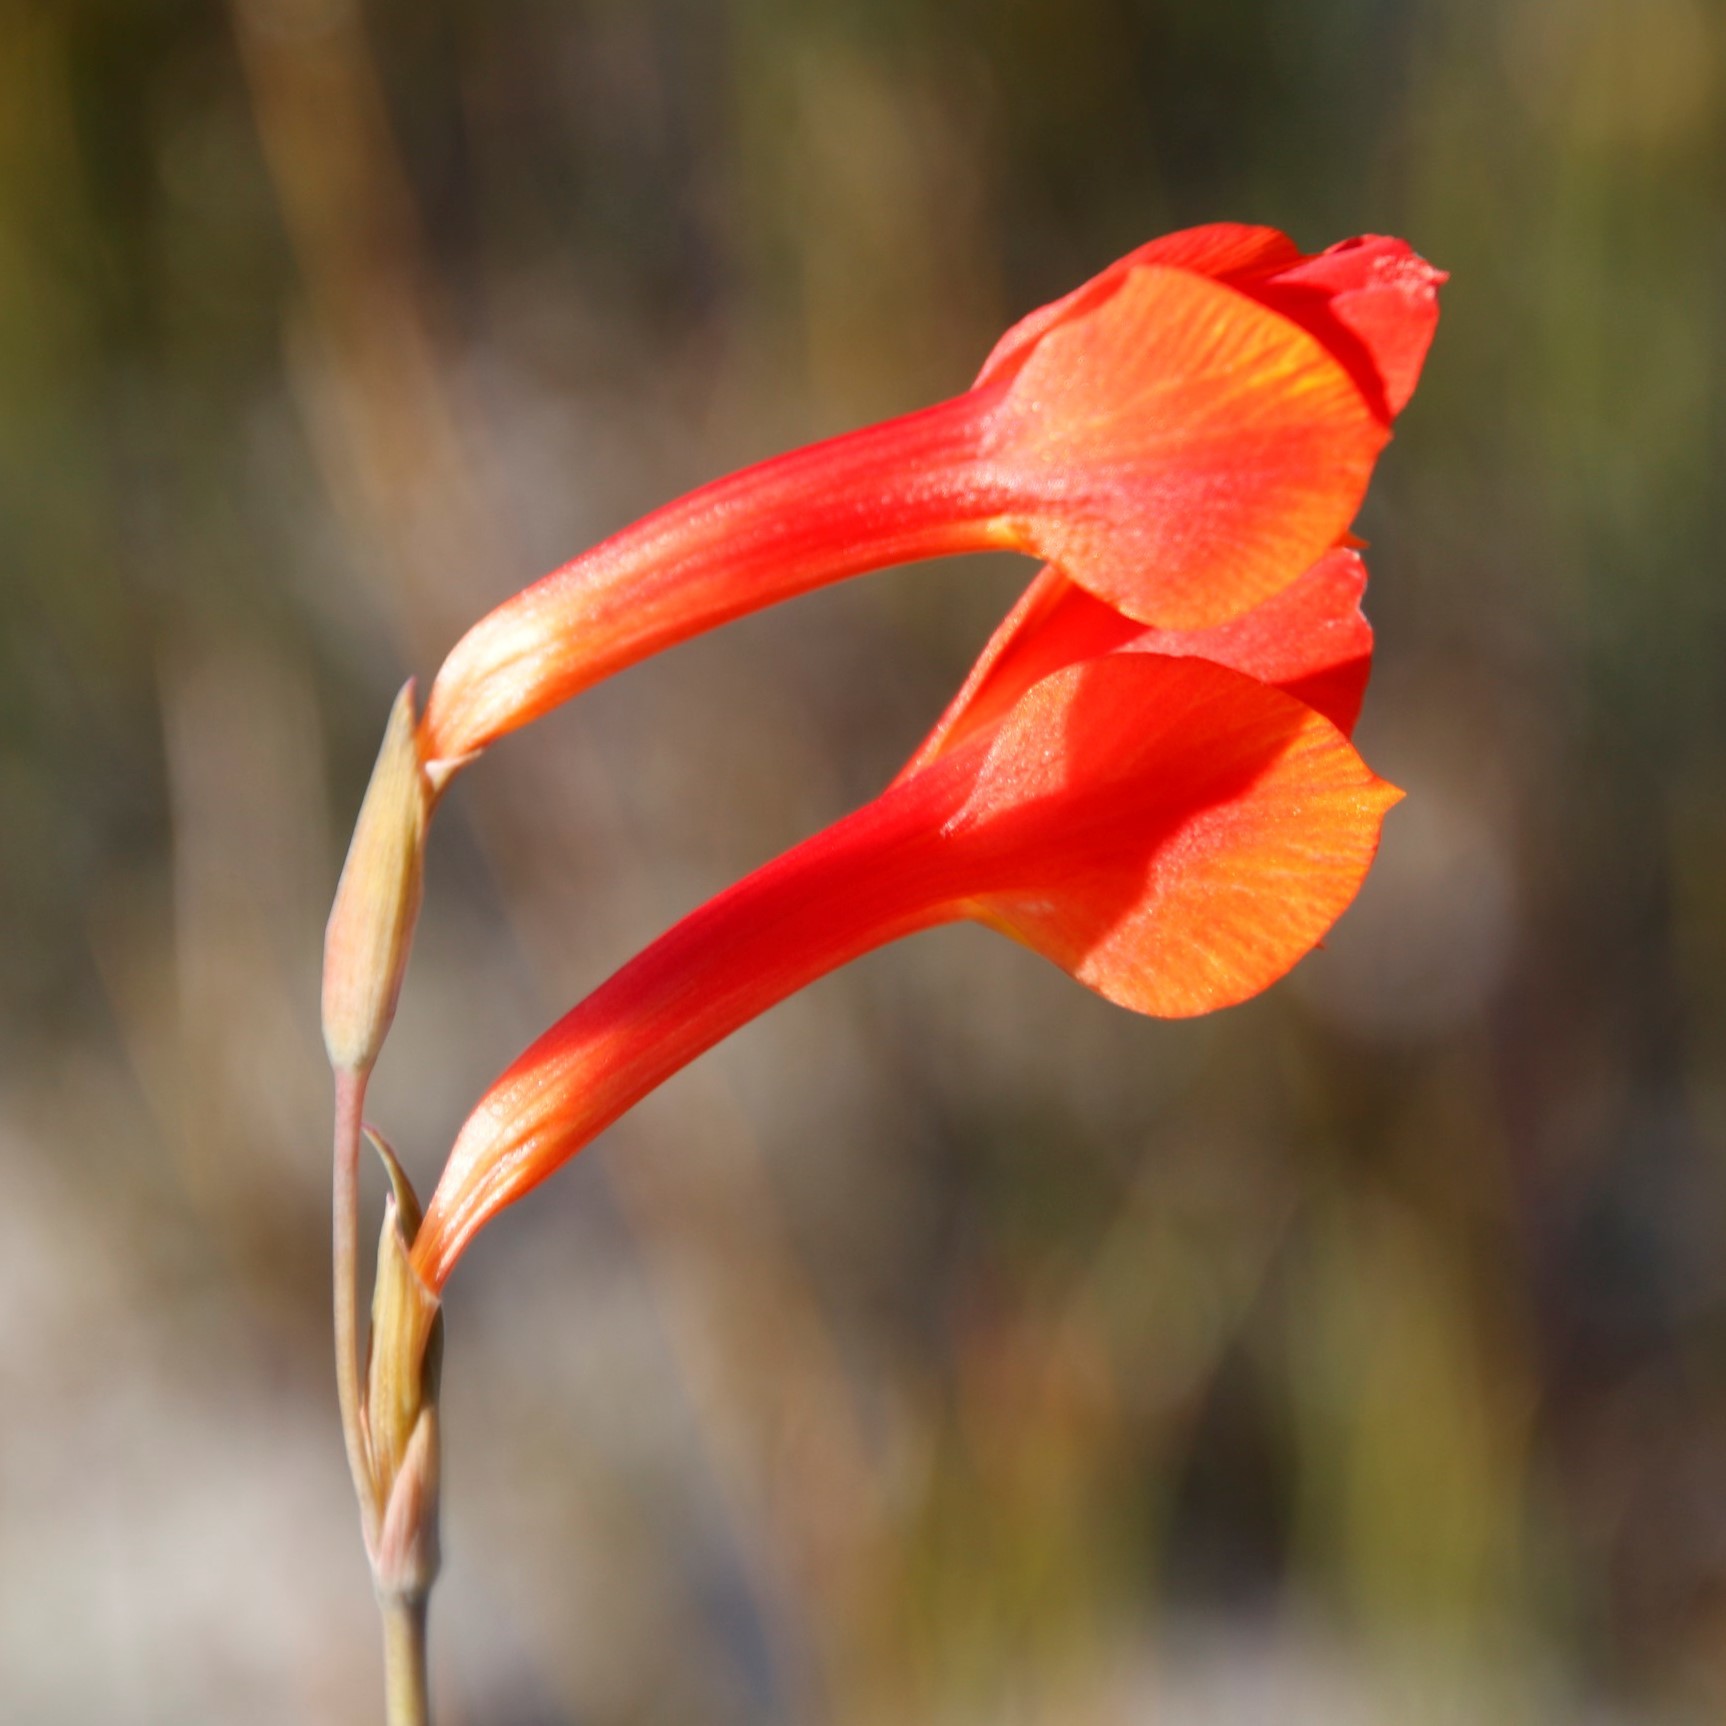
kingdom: Plantae
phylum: Tracheophyta
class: Liliopsida
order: Asparagales
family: Iridaceae
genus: Gladiolus
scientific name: Gladiolus merianellus
